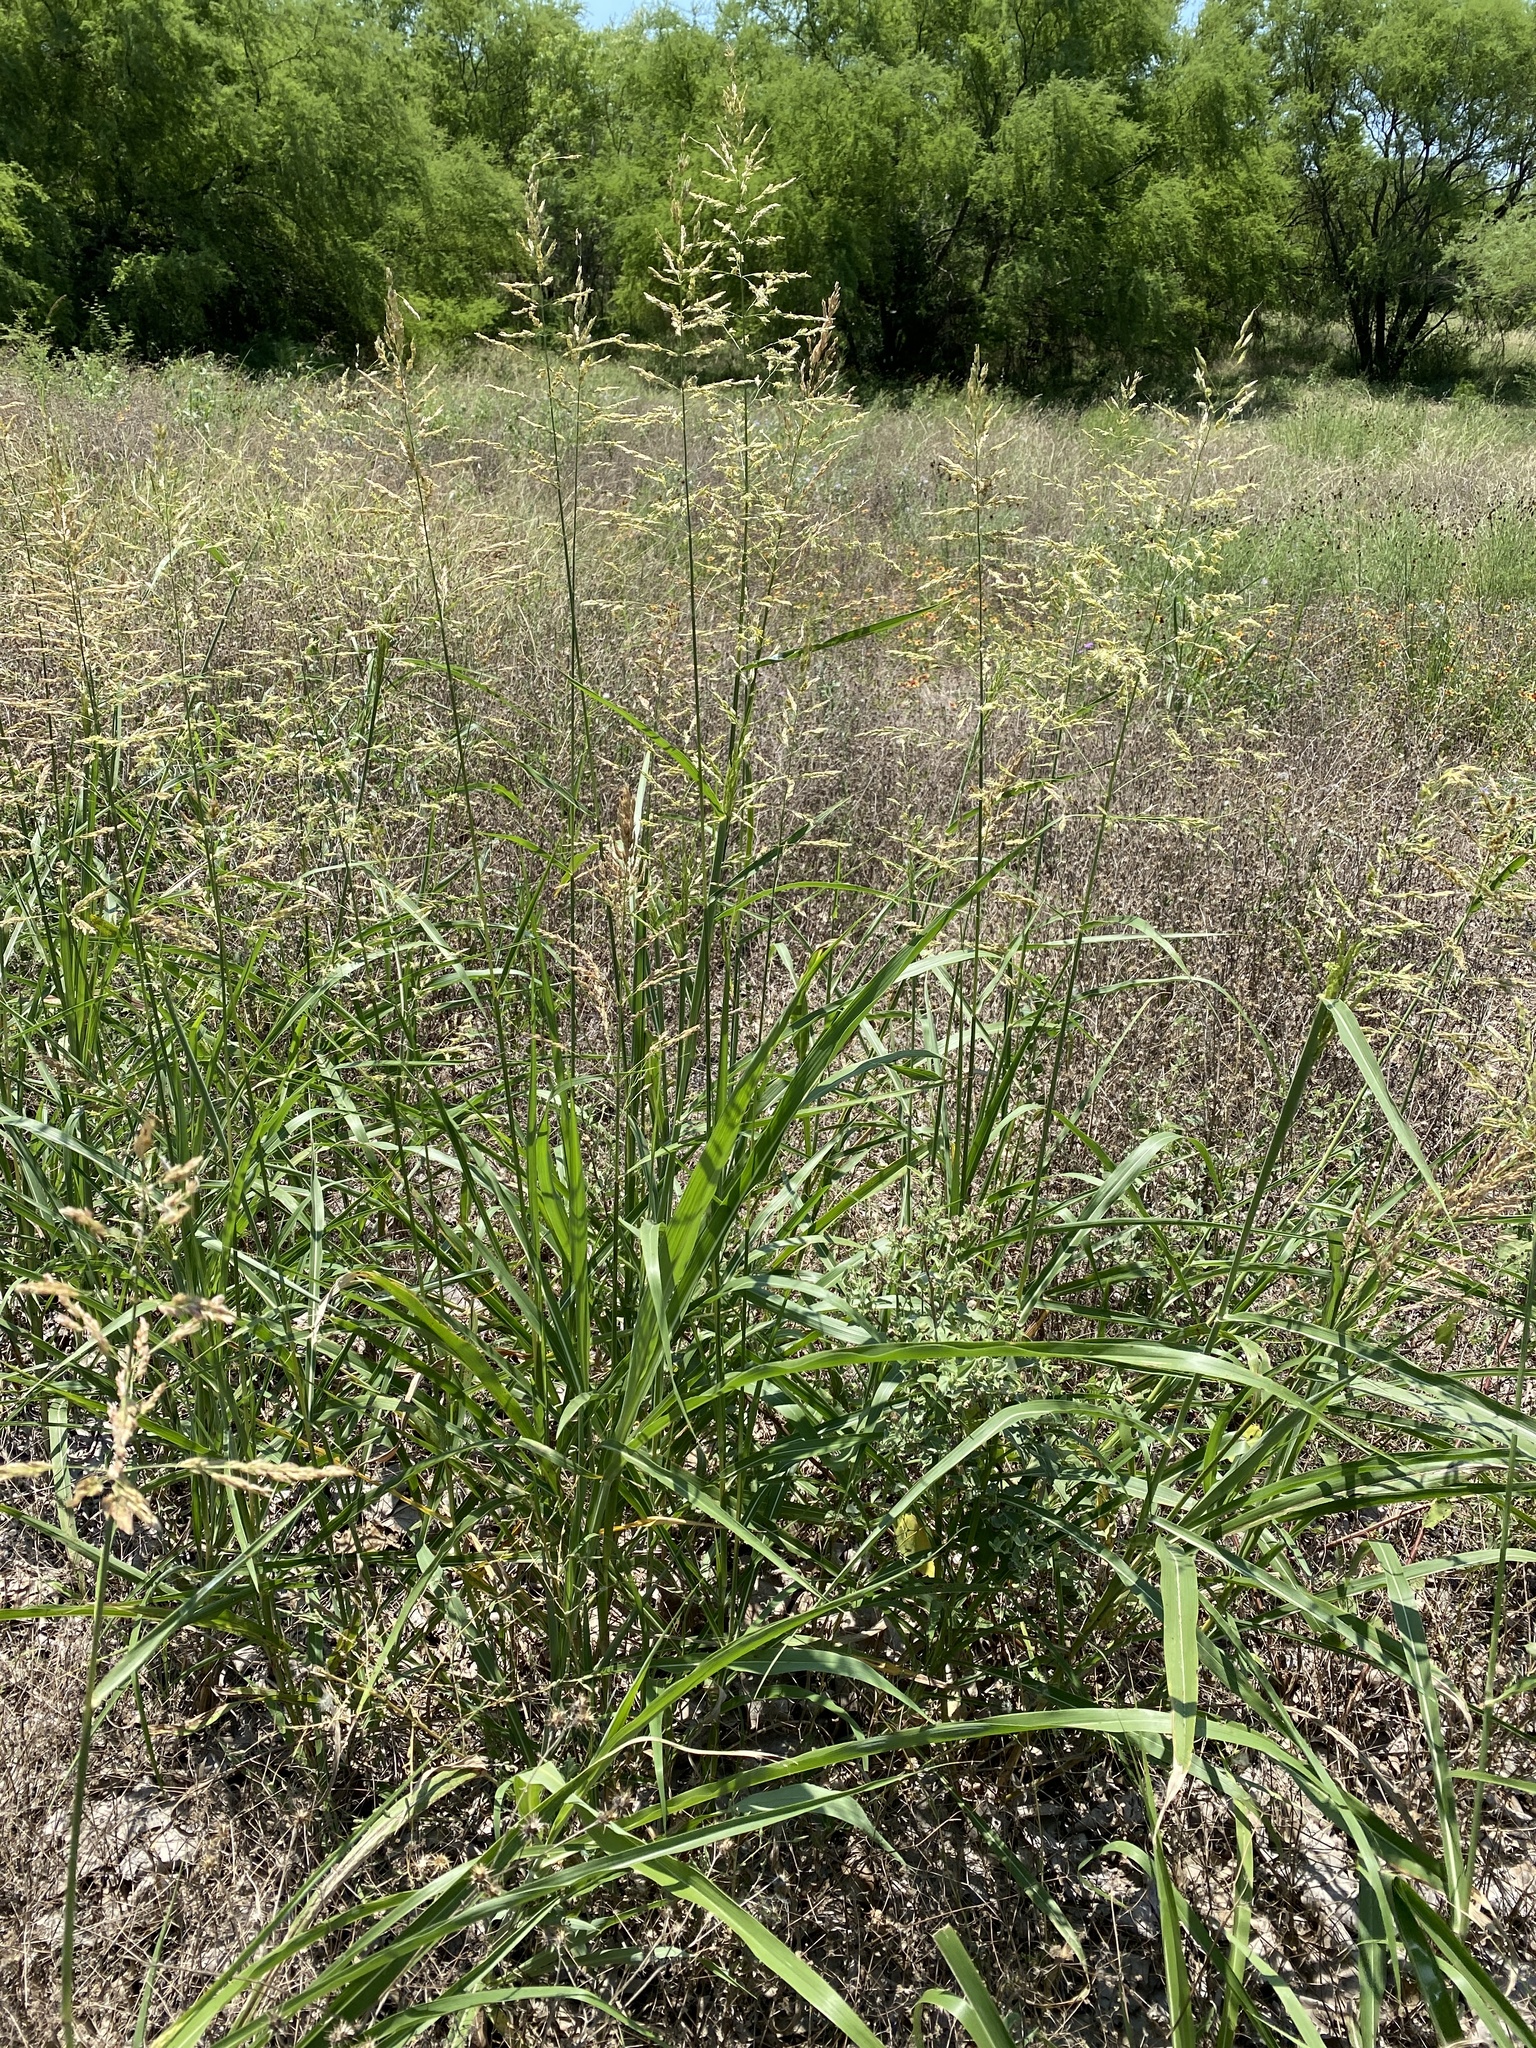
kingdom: Plantae
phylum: Tracheophyta
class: Liliopsida
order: Poales
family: Poaceae
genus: Sorghum
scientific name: Sorghum halepense
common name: Johnson-grass
